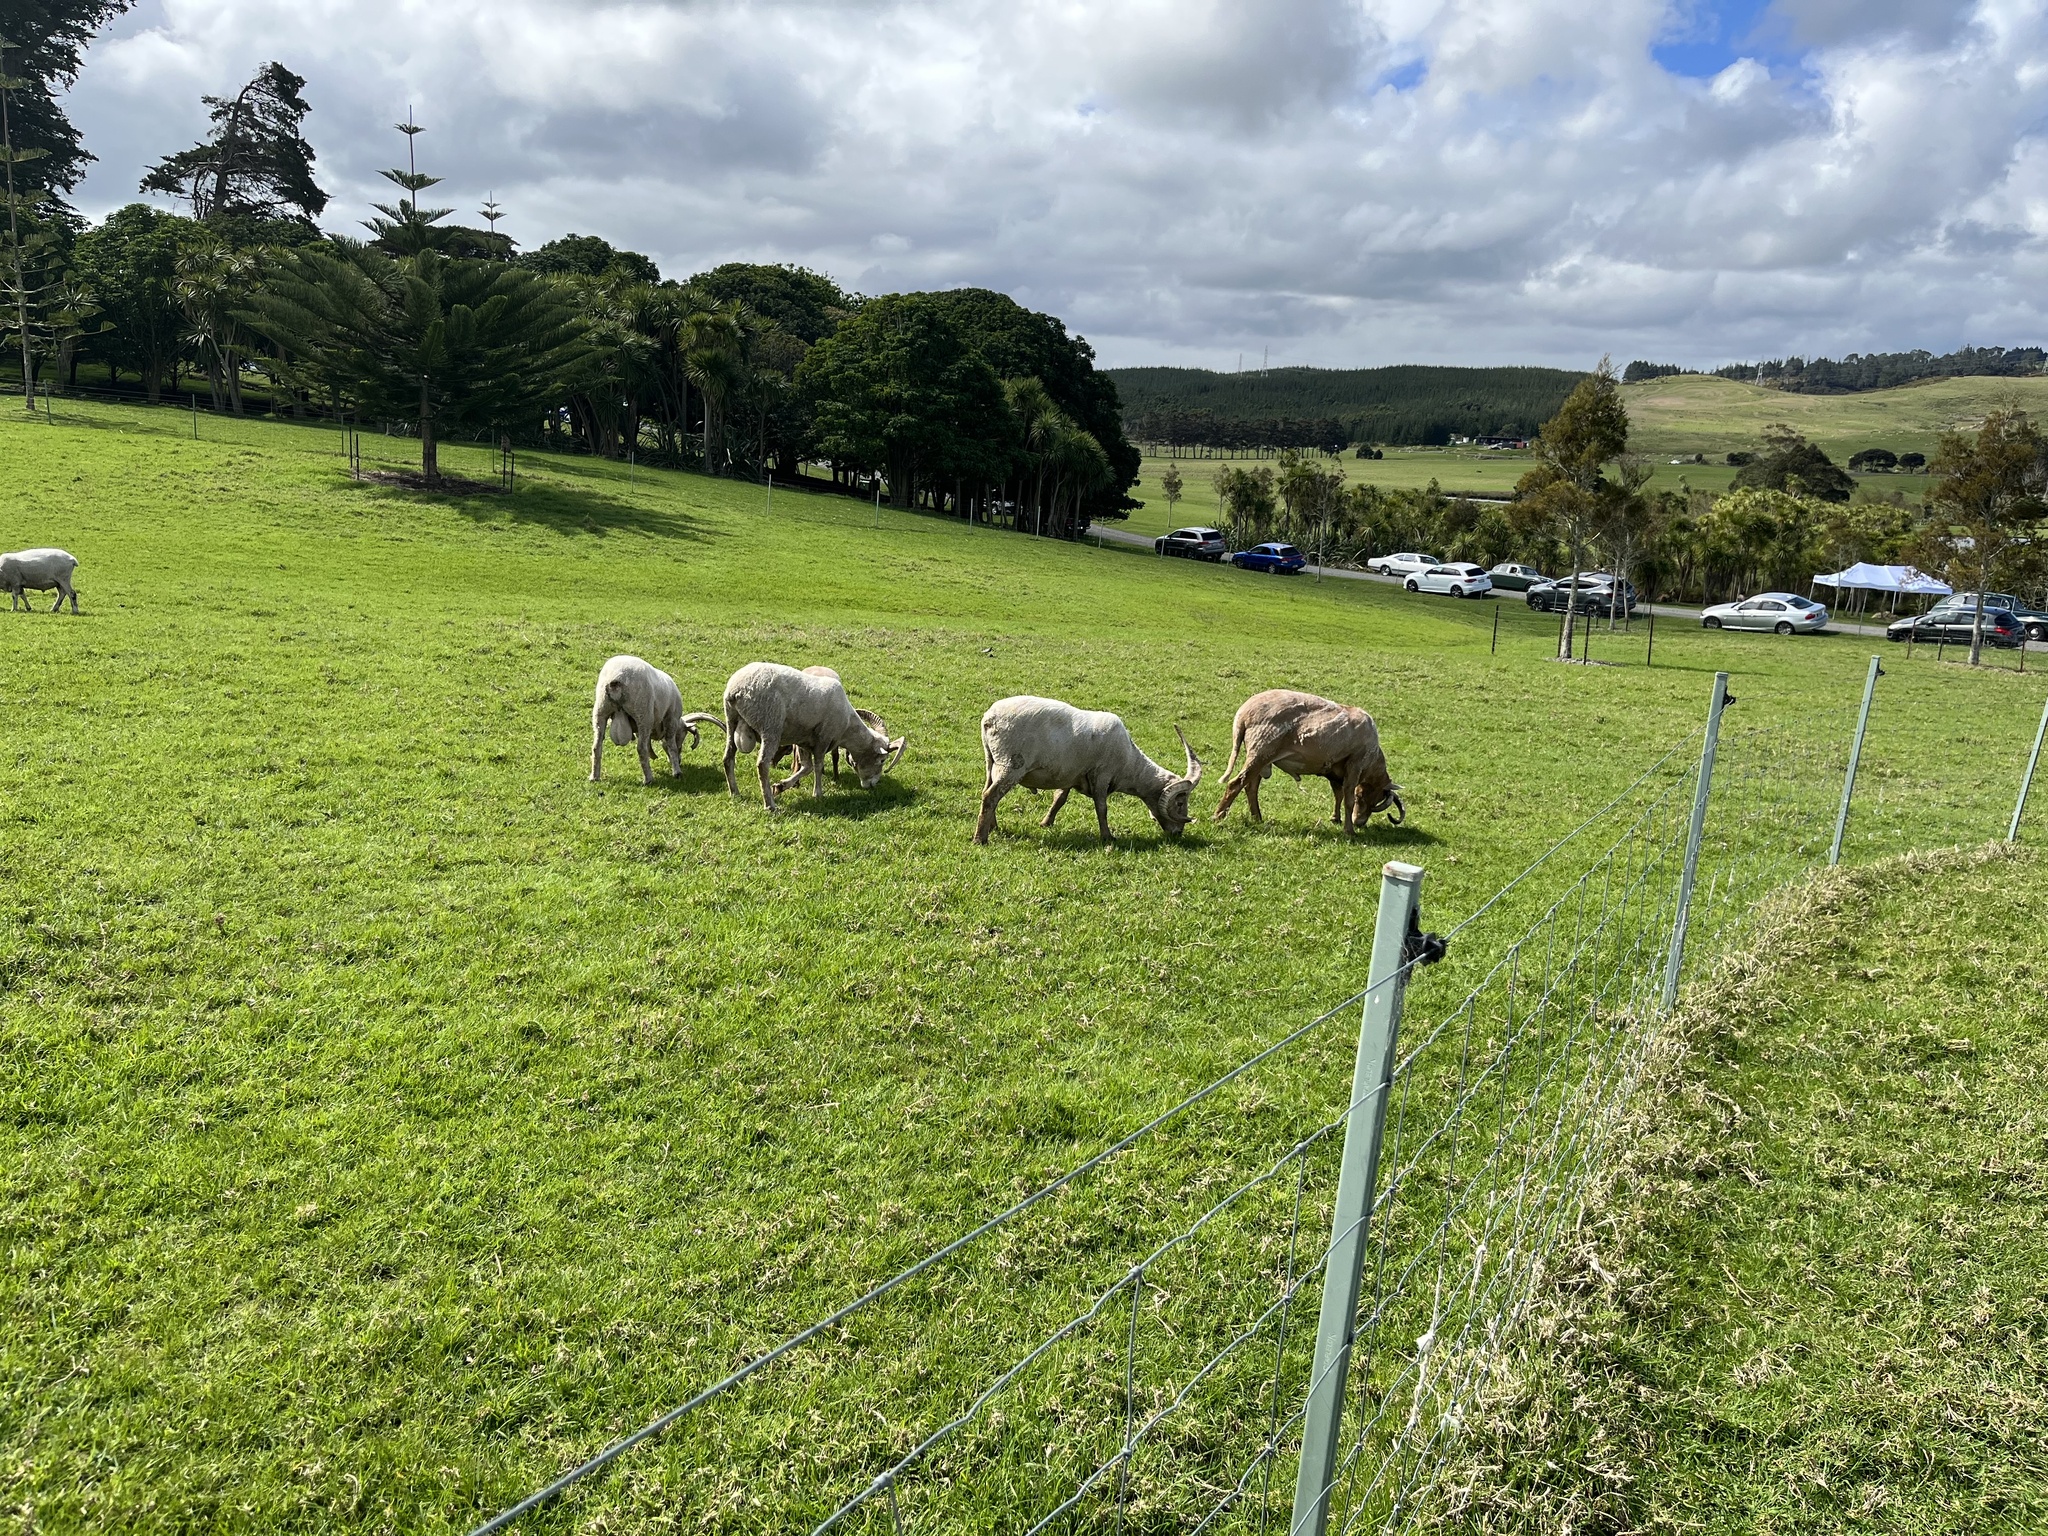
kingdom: Animalia
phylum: Chordata
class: Mammalia
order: Artiodactyla
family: Bovidae
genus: Capra
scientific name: Capra hircus
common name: Domestic goat
